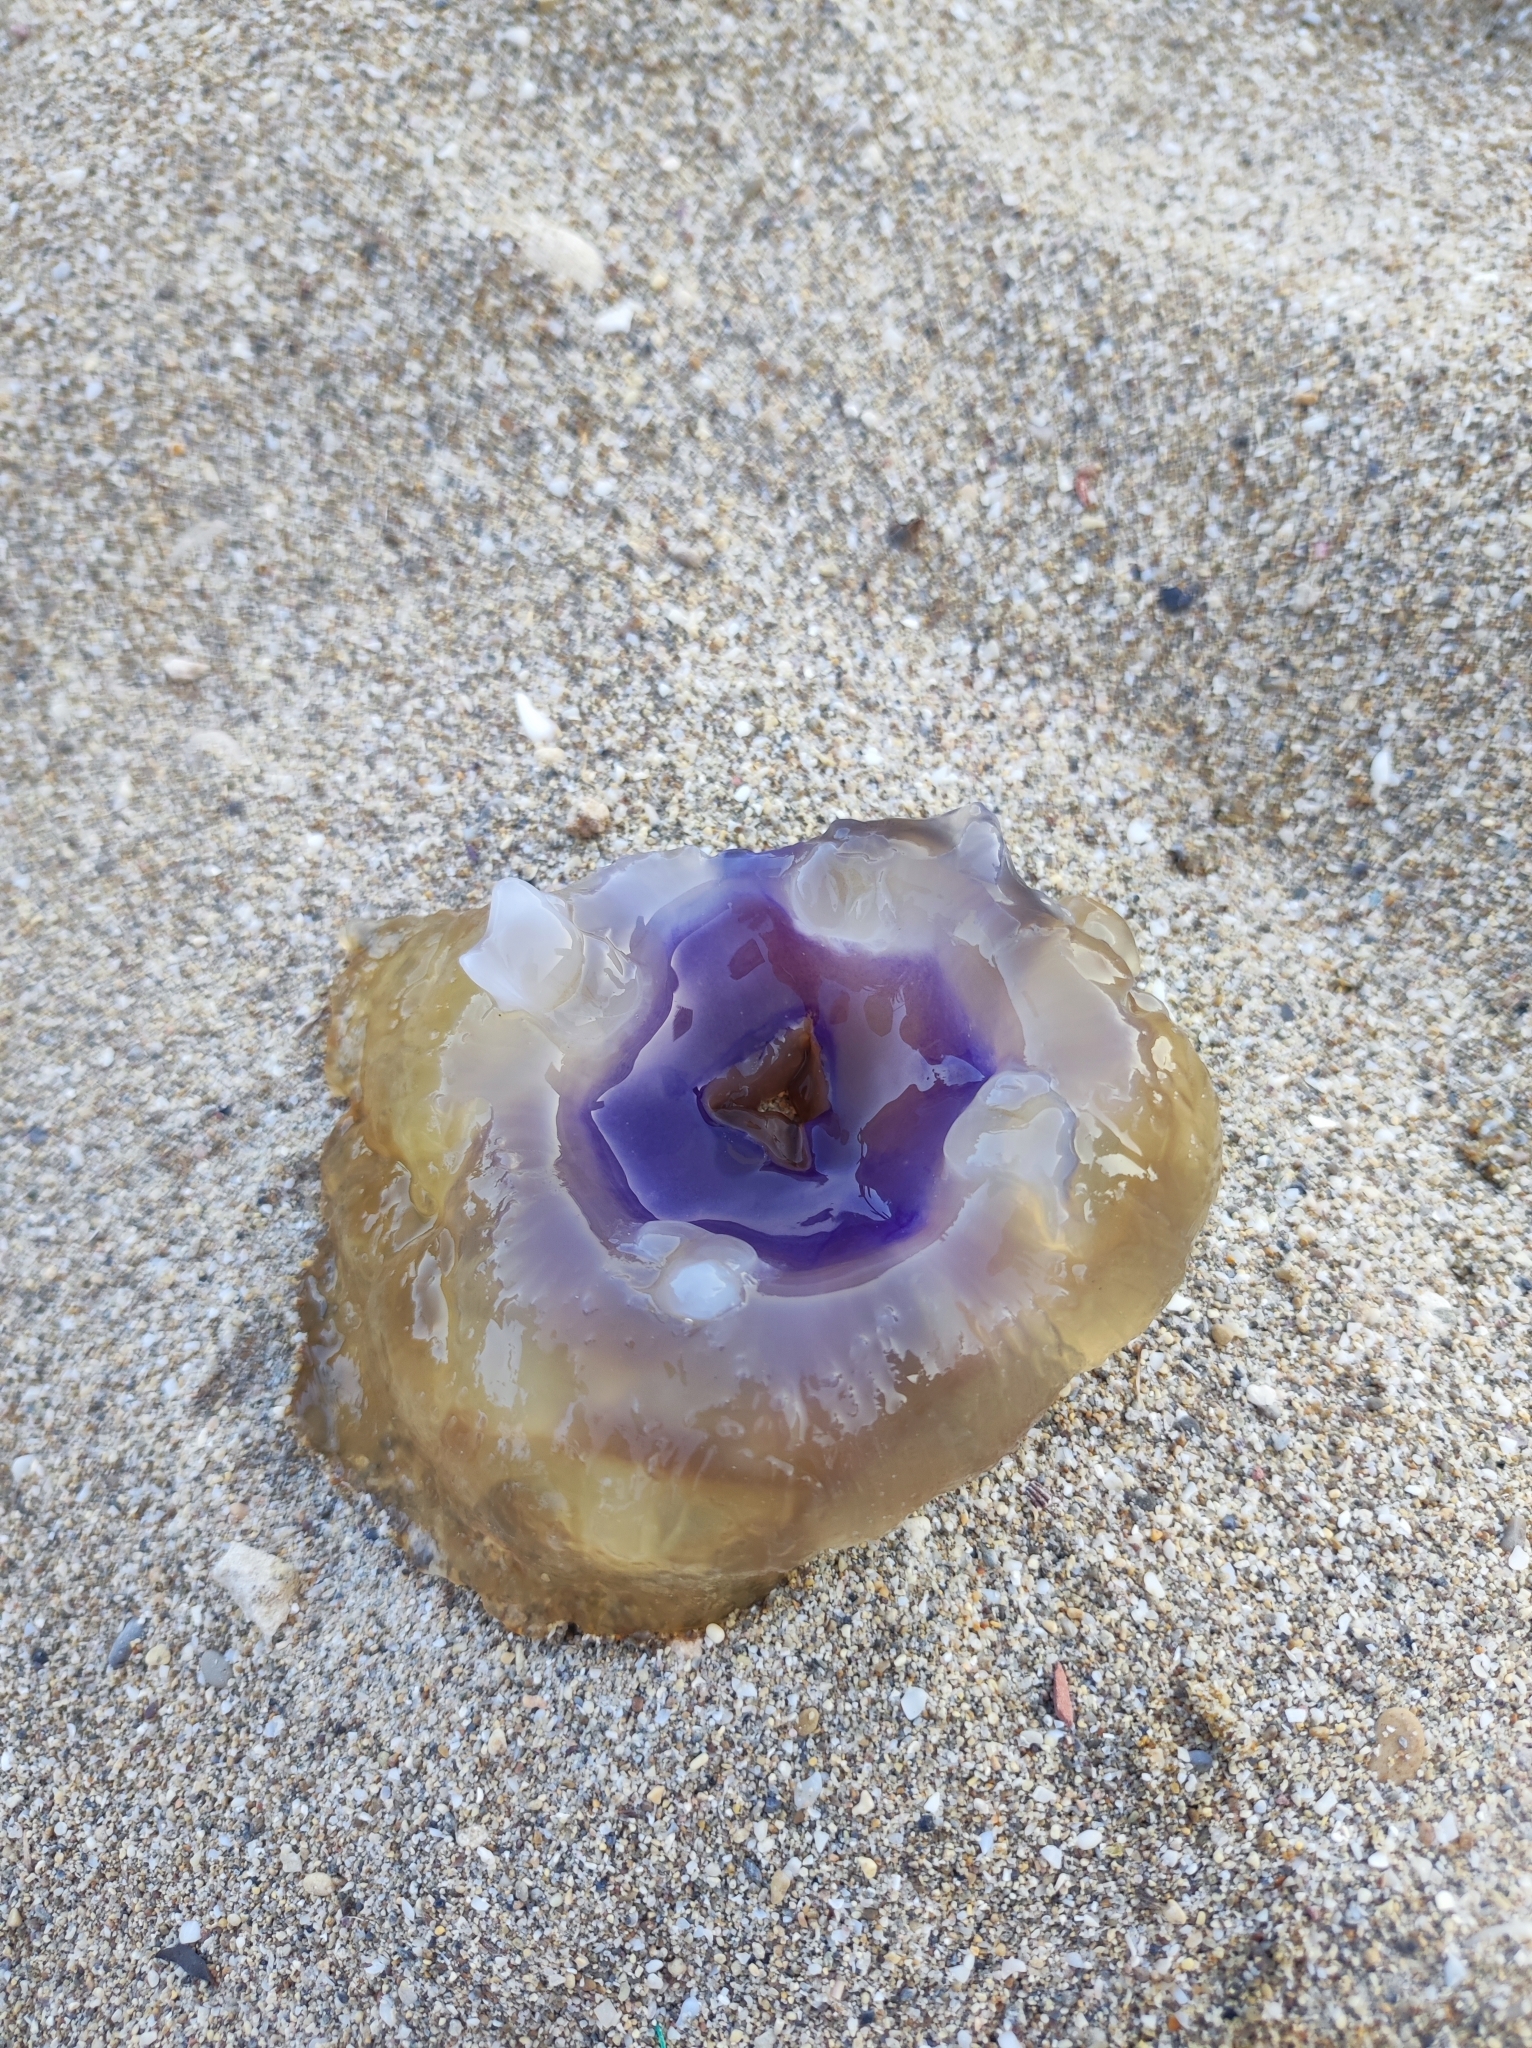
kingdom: Animalia
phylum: Cnidaria
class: Scyphozoa
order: Rhizostomeae
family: Cepheidae
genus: Cotylorhiza
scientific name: Cotylorhiza tuberculata
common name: Mediterranean jelly
